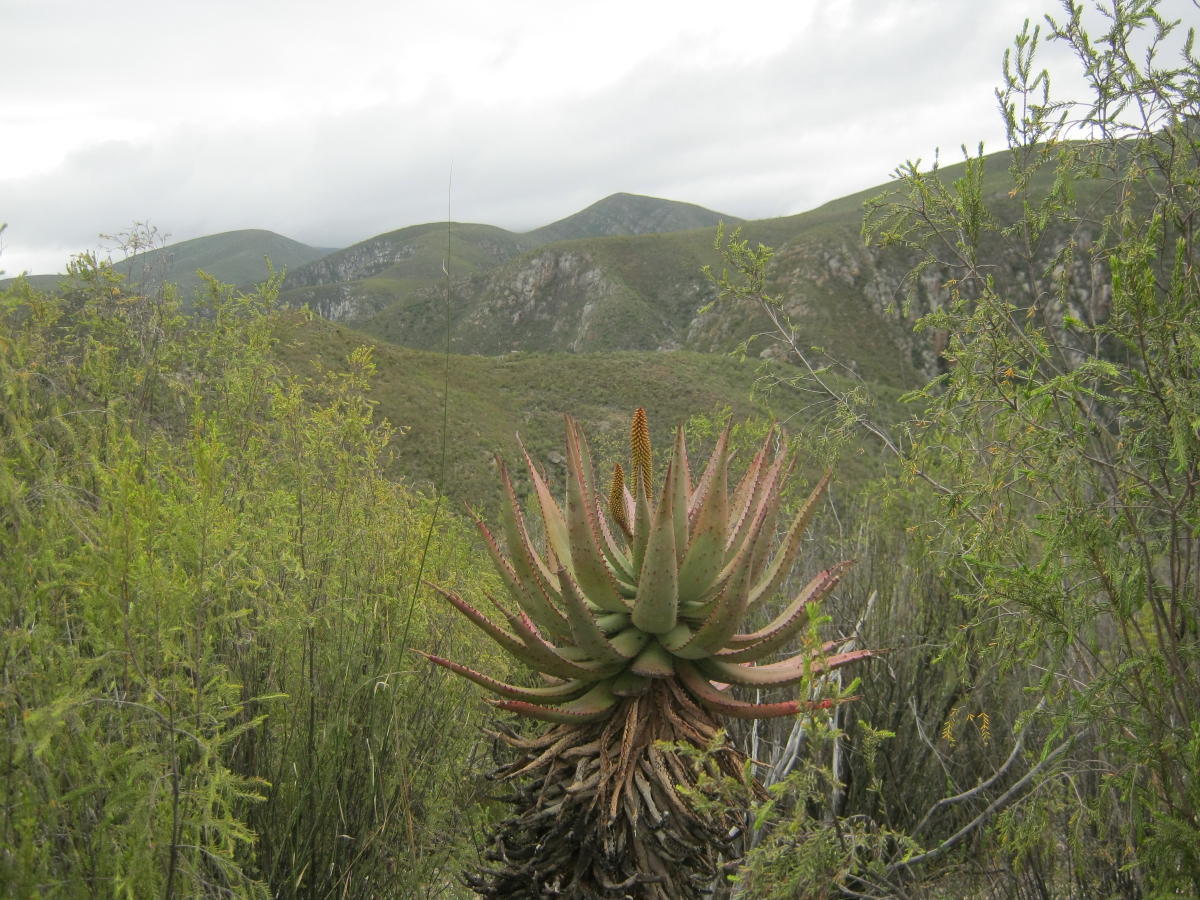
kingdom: Plantae
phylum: Tracheophyta
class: Liliopsida
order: Asparagales
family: Asphodelaceae
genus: Aloe
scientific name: Aloe ferox
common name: Bitter aloe
